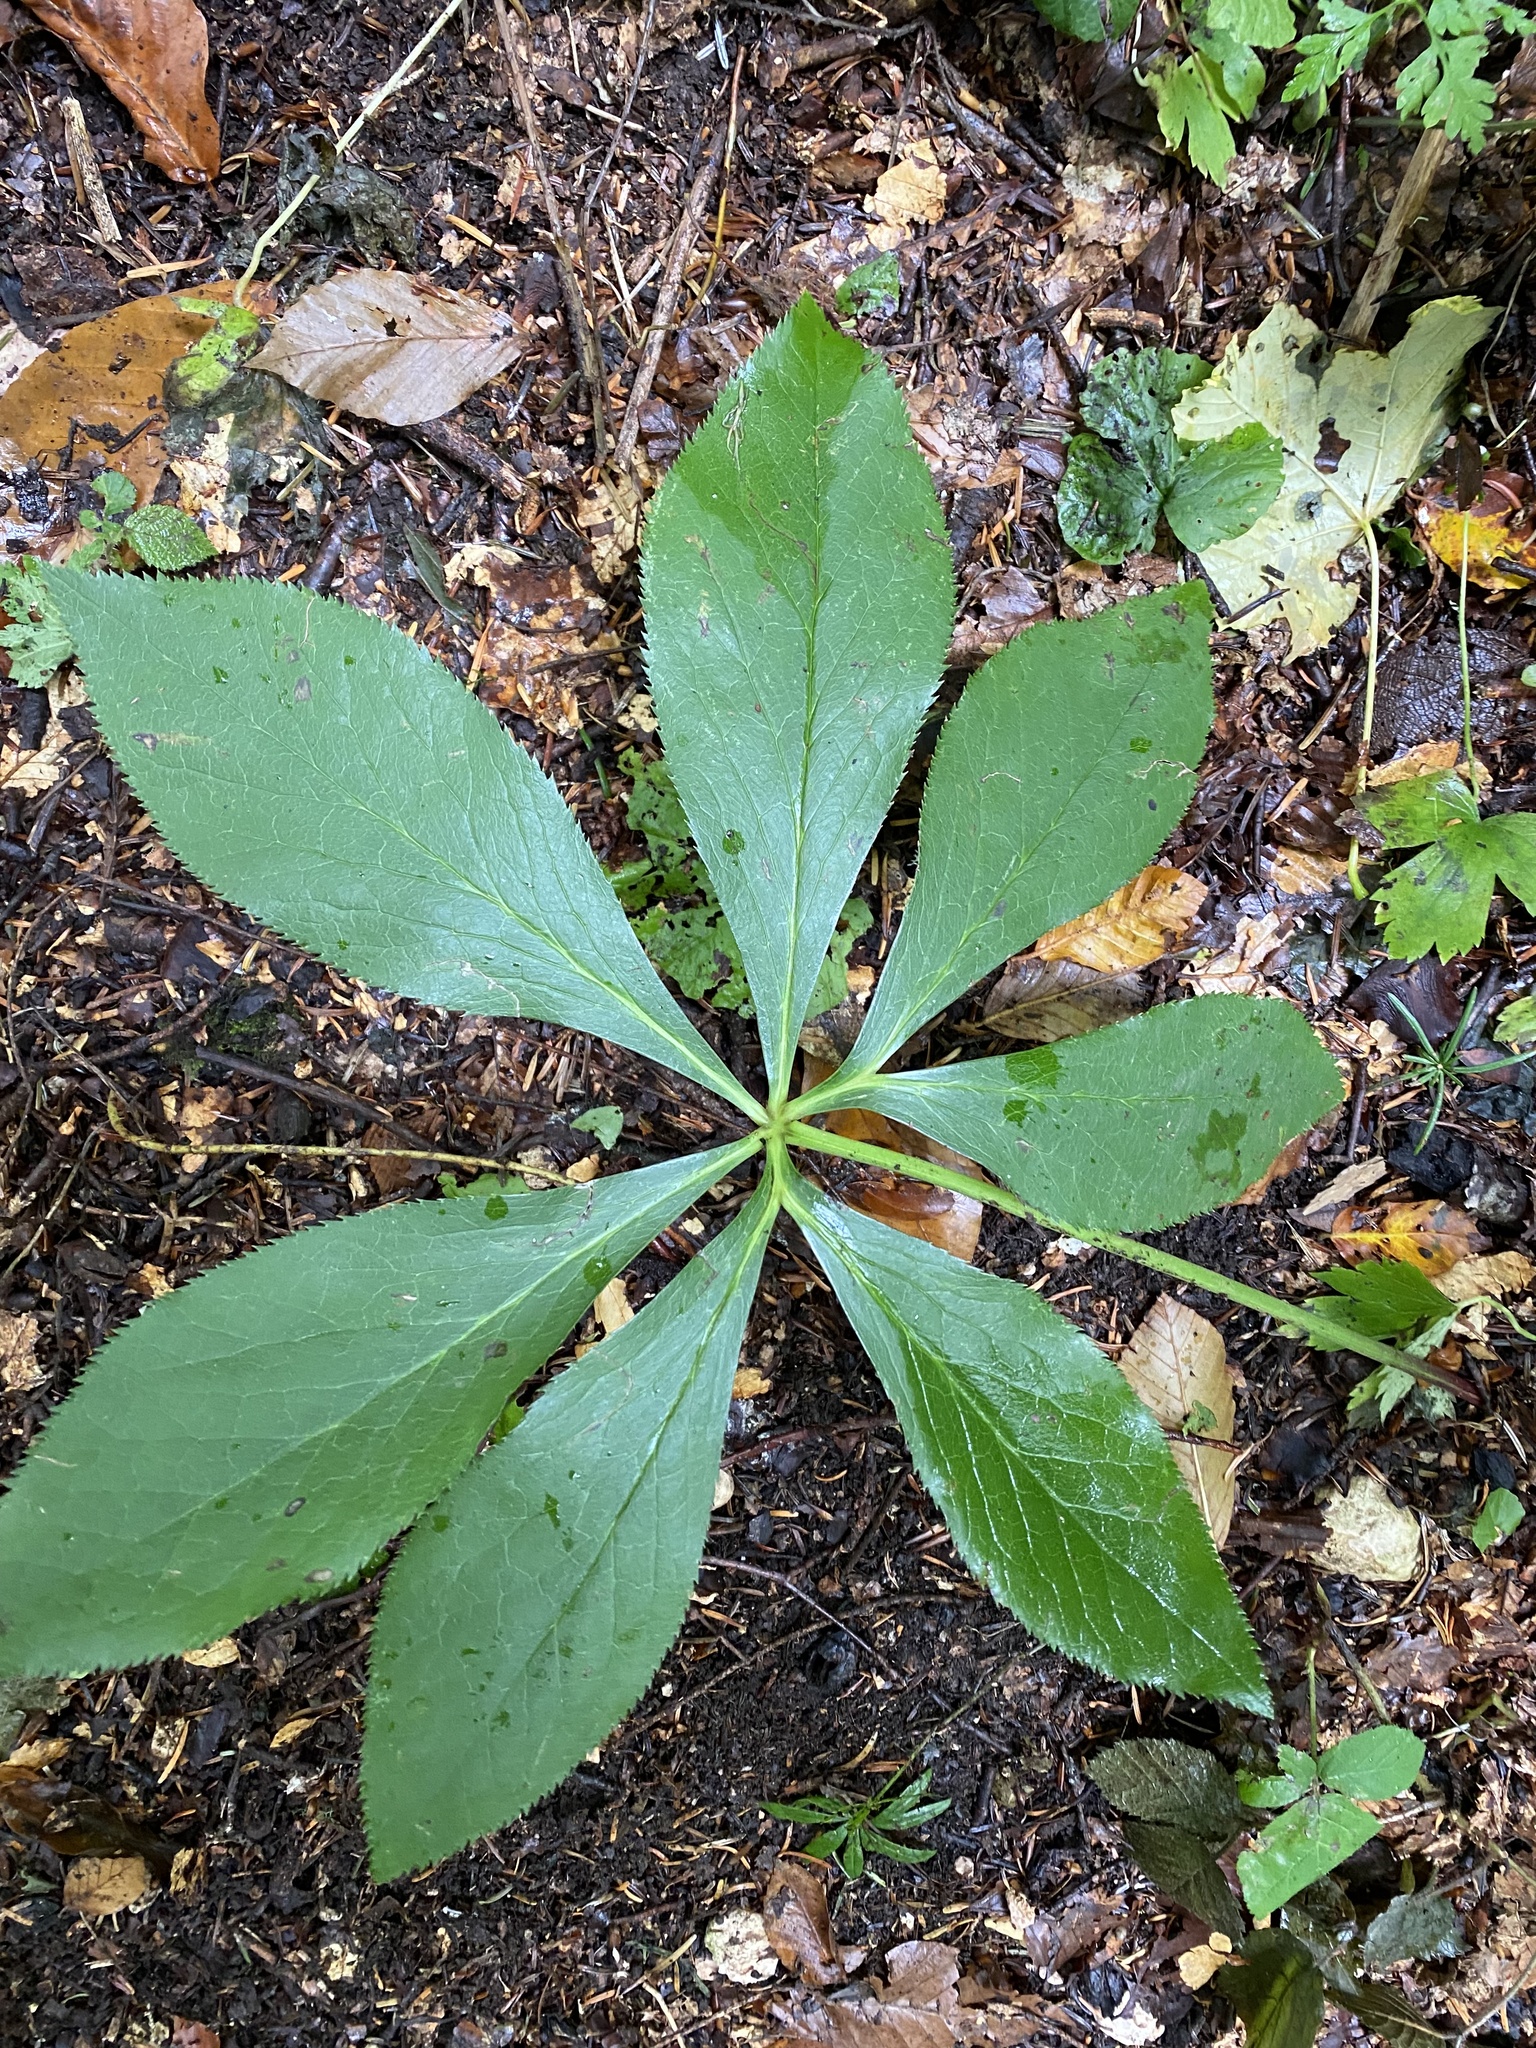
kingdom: Plantae
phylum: Tracheophyta
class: Magnoliopsida
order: Ranunculales
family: Ranunculaceae
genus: Helleborus
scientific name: Helleborus orientalis
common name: Lenten-rose
